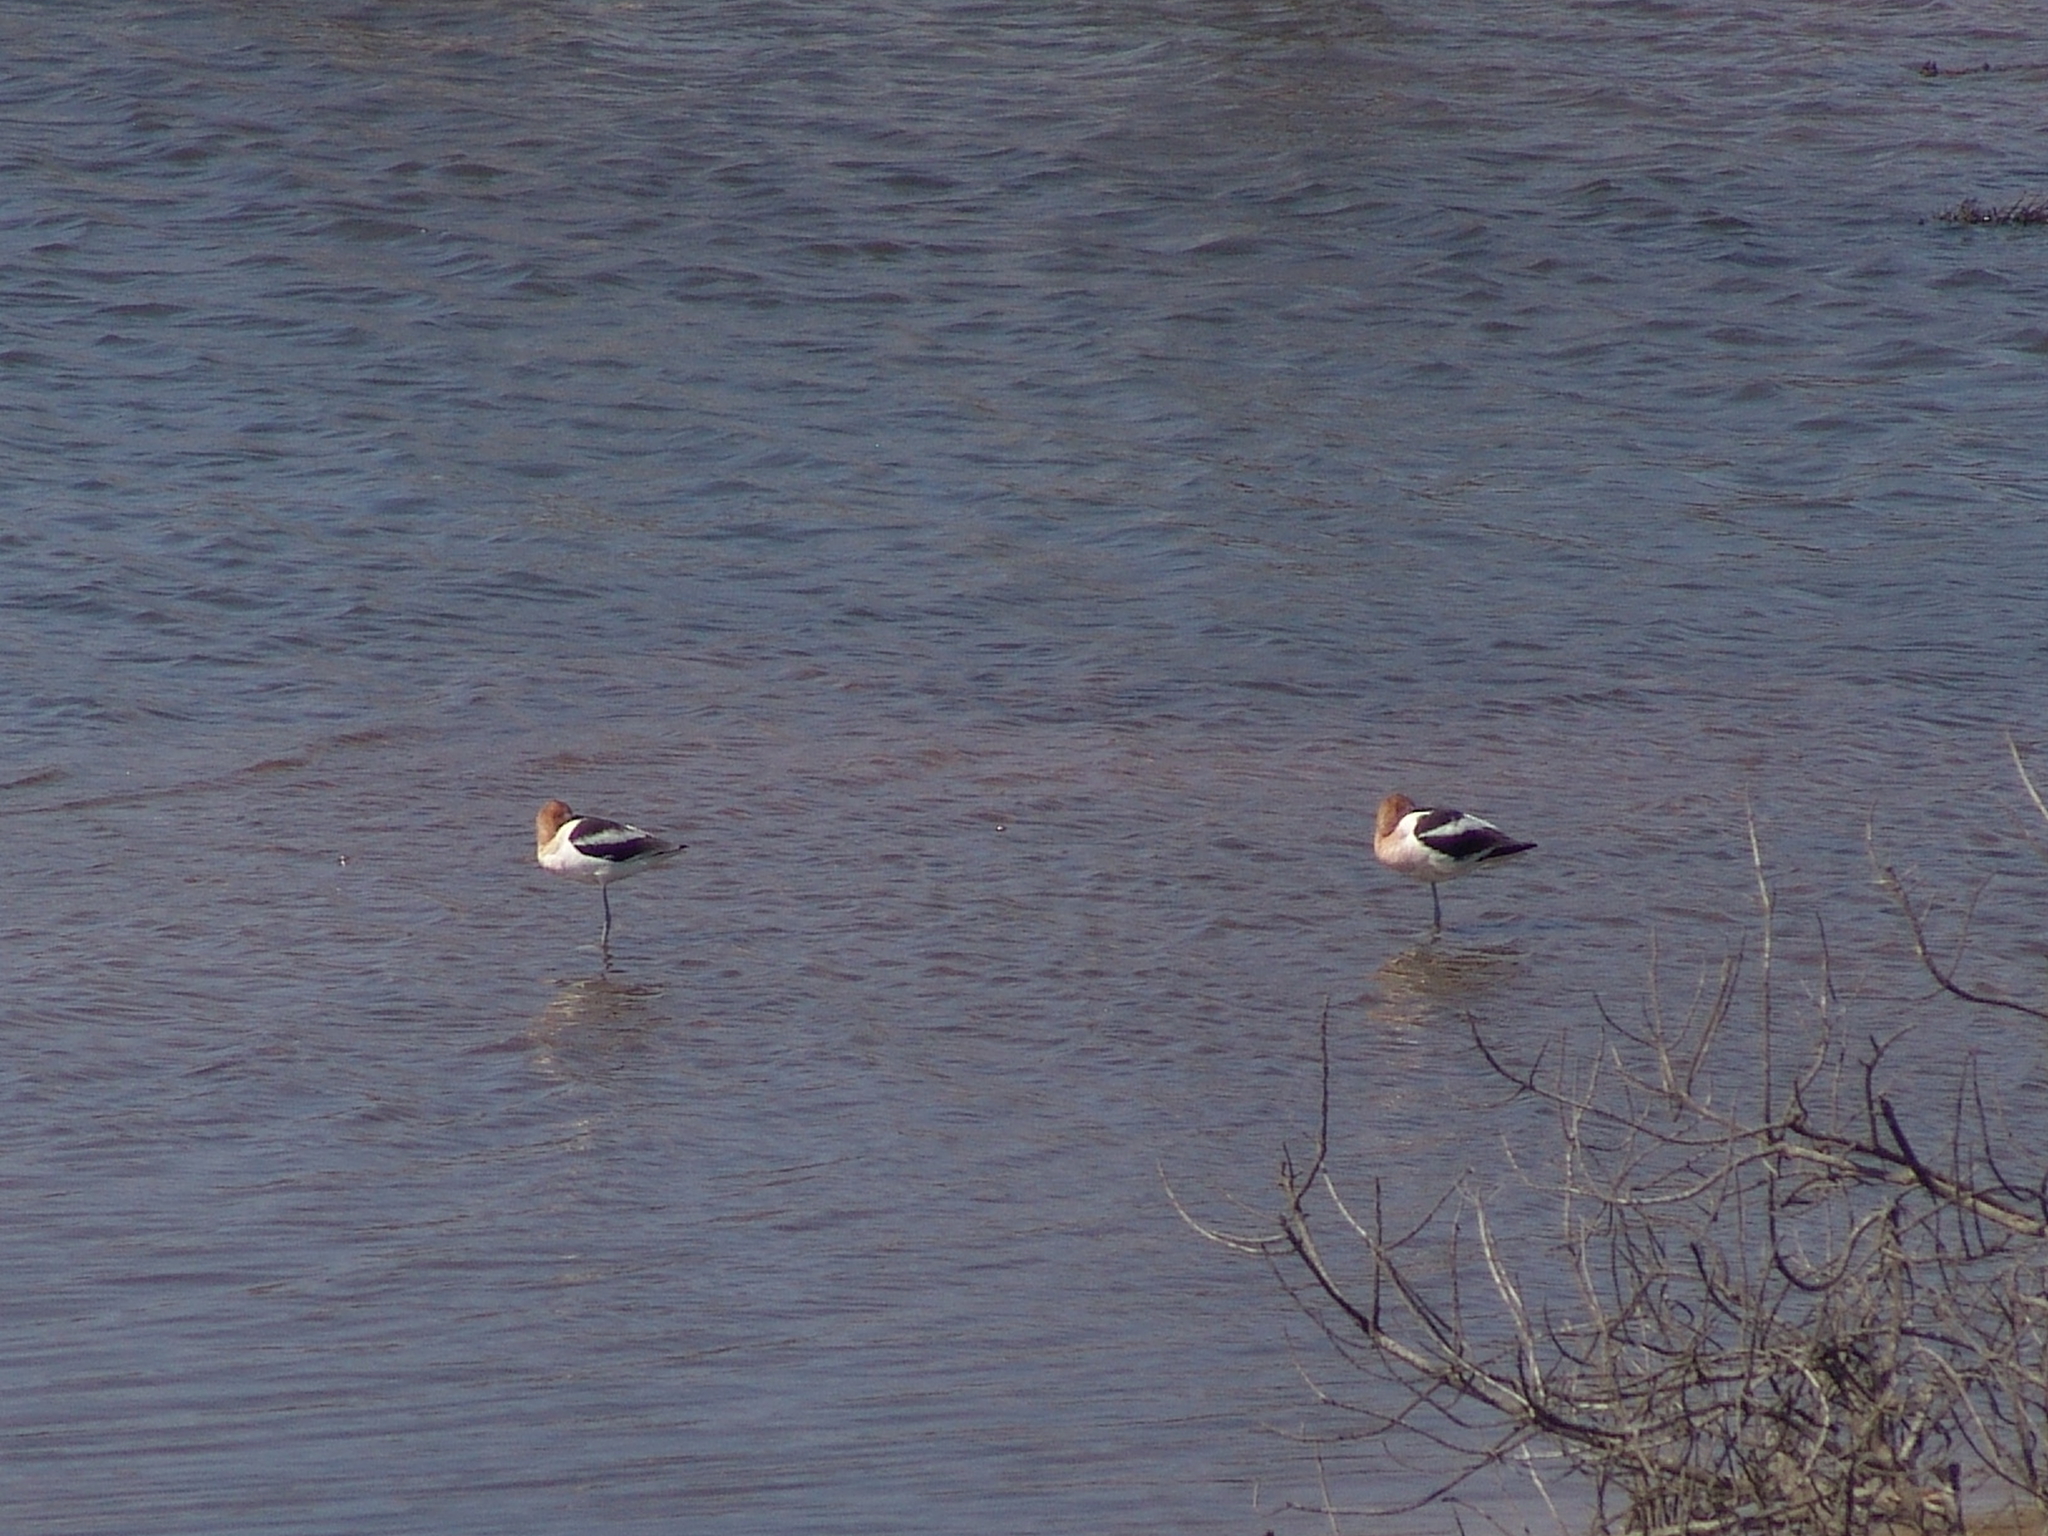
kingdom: Animalia
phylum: Chordata
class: Aves
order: Charadriiformes
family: Recurvirostridae
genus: Recurvirostra
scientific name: Recurvirostra americana
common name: American avocet
